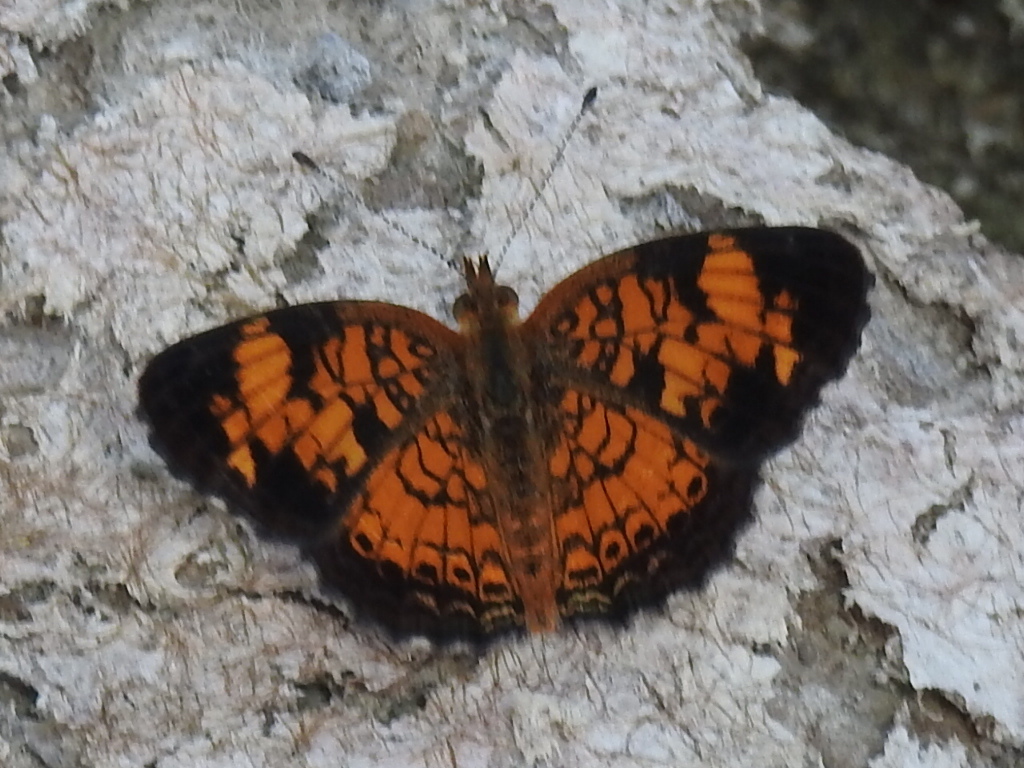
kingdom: Animalia
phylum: Arthropoda
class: Insecta
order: Lepidoptera
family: Nymphalidae
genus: Phyciodes
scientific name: Phyciodes tharos
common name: Pearl crescent
